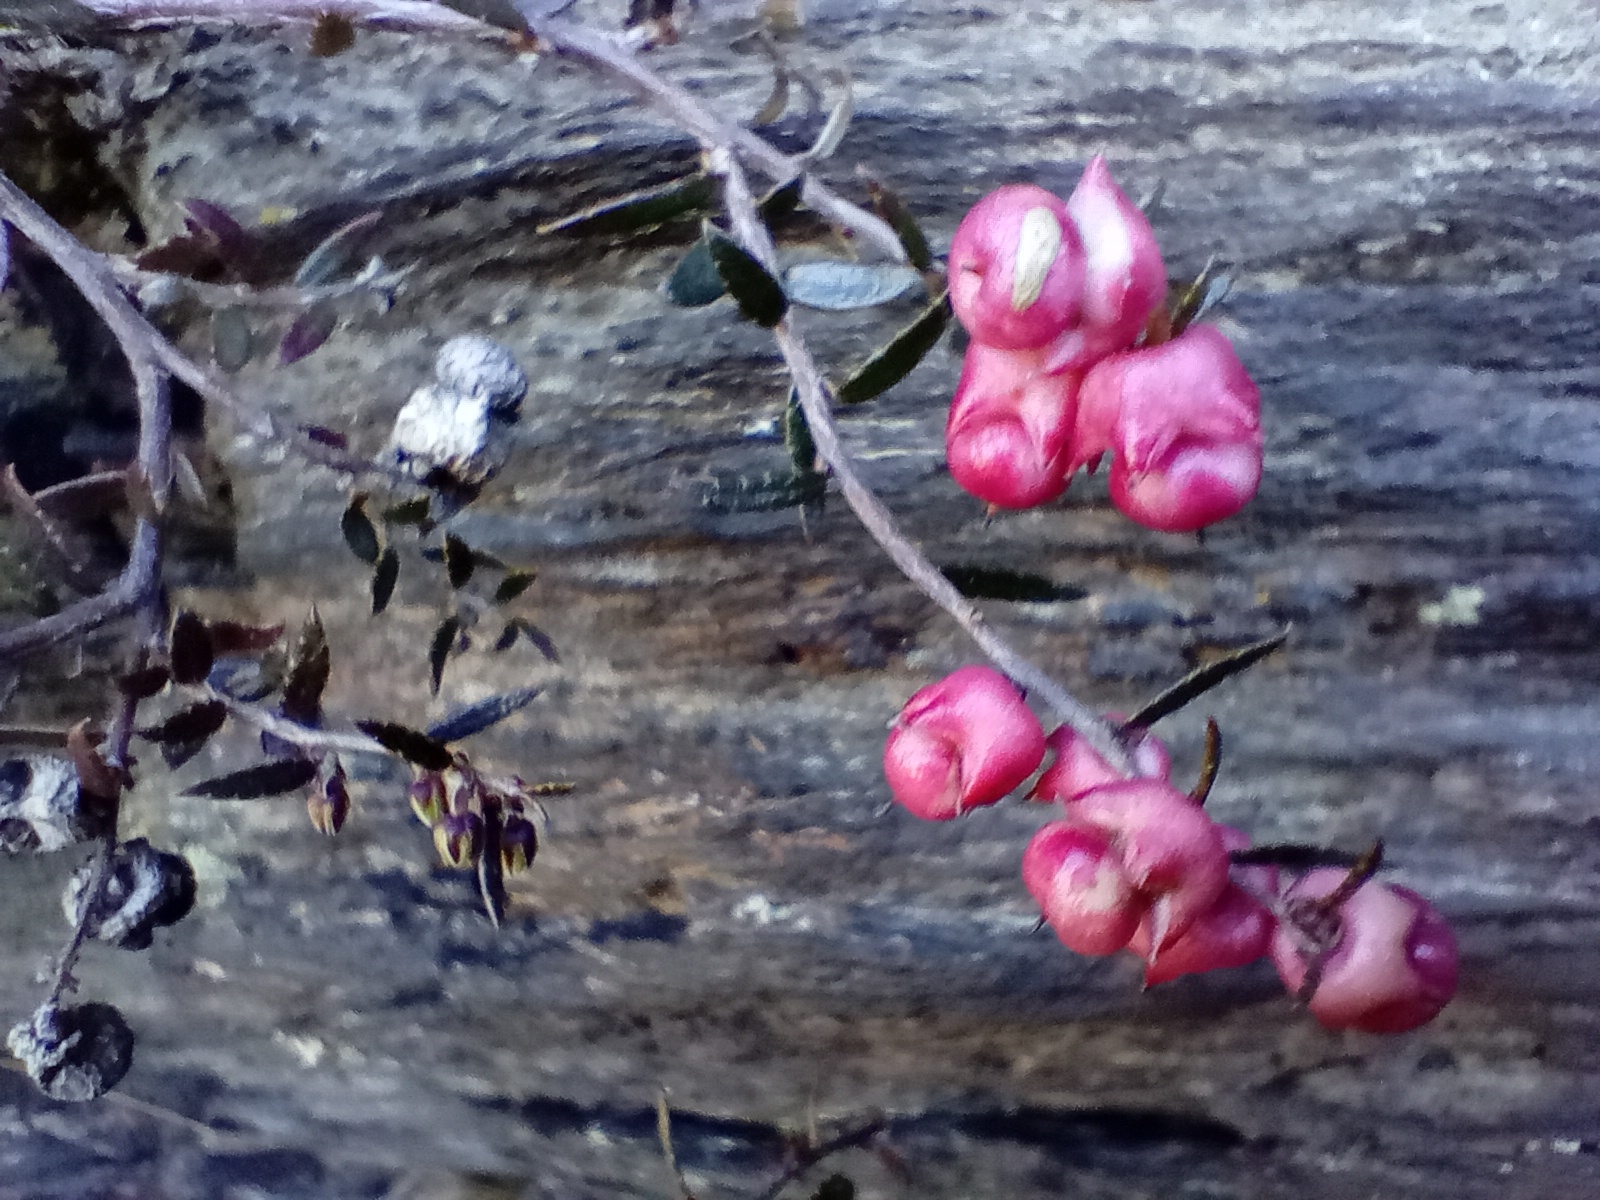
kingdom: Plantae
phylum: Tracheophyta
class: Magnoliopsida
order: Ericales
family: Ericaceae
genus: Gaultheria
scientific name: Gaultheria macrostigma
